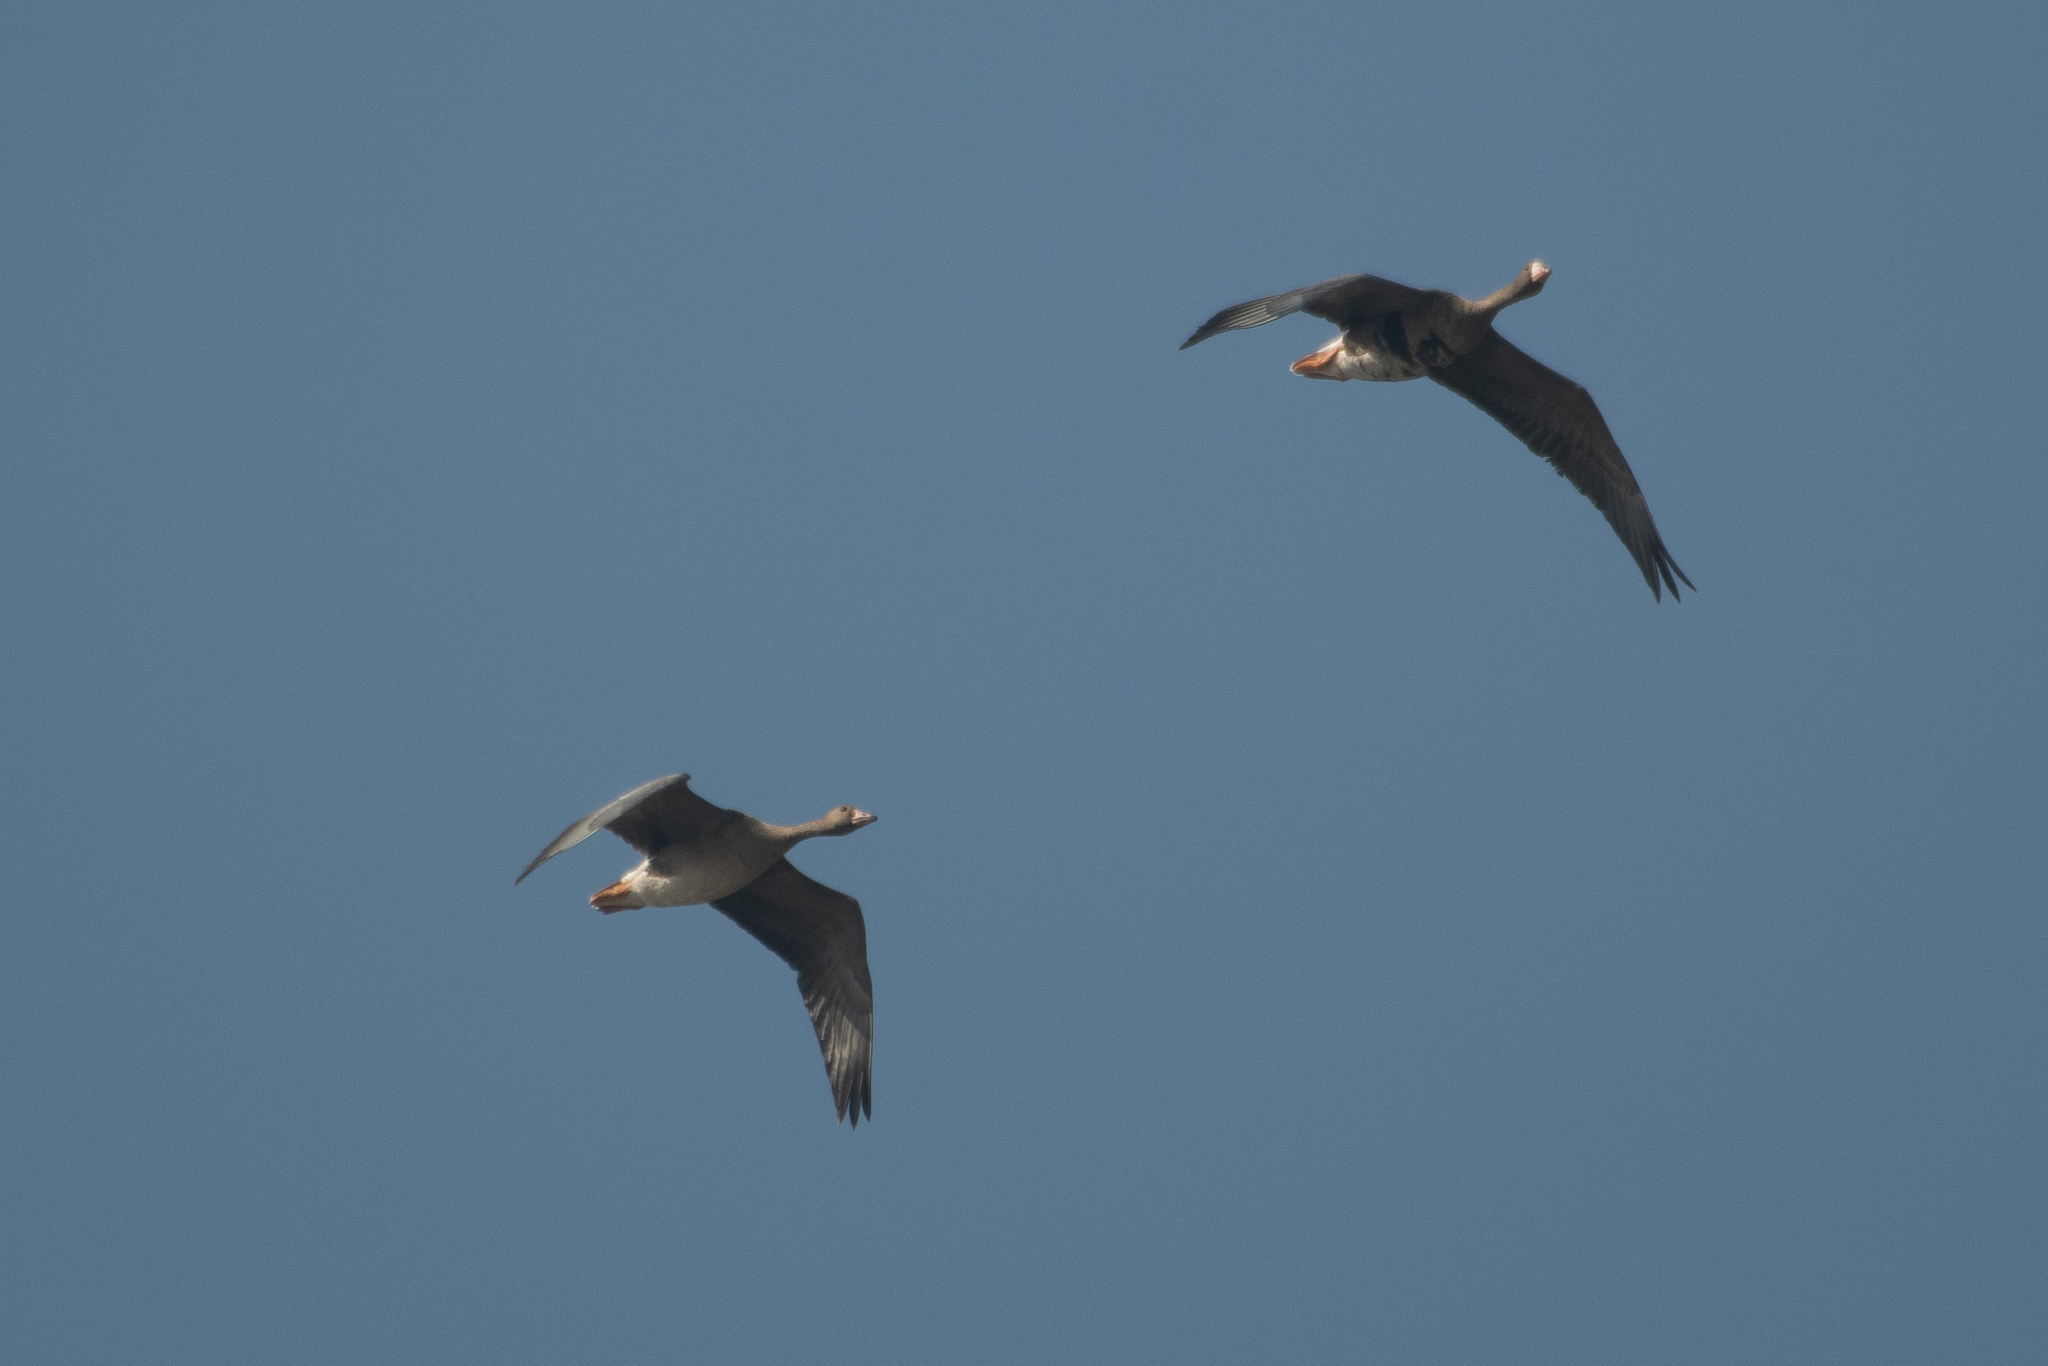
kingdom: Animalia
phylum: Chordata
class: Aves
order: Anseriformes
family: Anatidae
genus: Anser
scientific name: Anser albifrons
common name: Greater white-fronted goose
